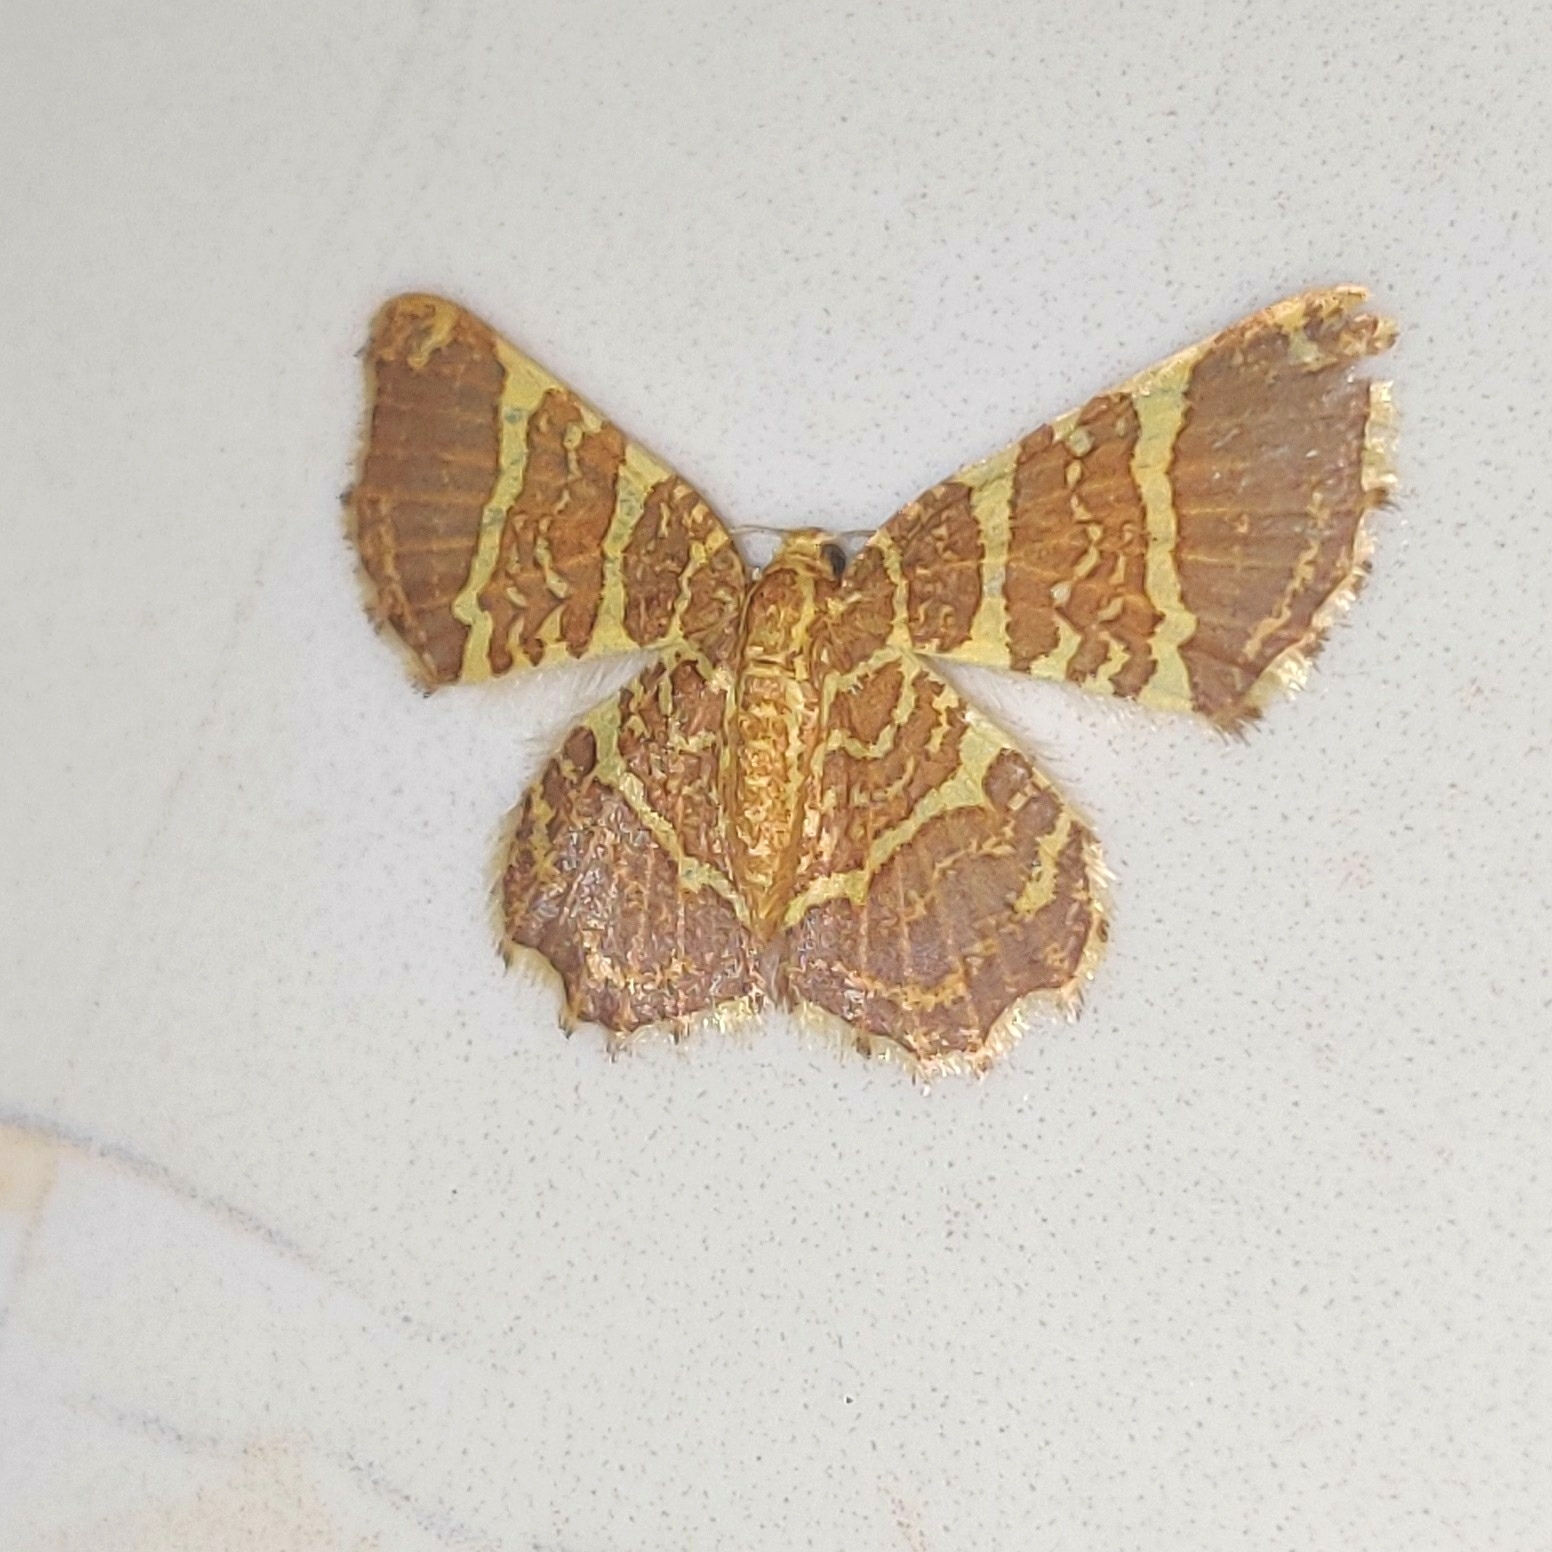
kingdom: Animalia
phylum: Arthropoda
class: Insecta
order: Lepidoptera
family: Geometridae
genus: Hastina
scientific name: Hastina pluristrigata
